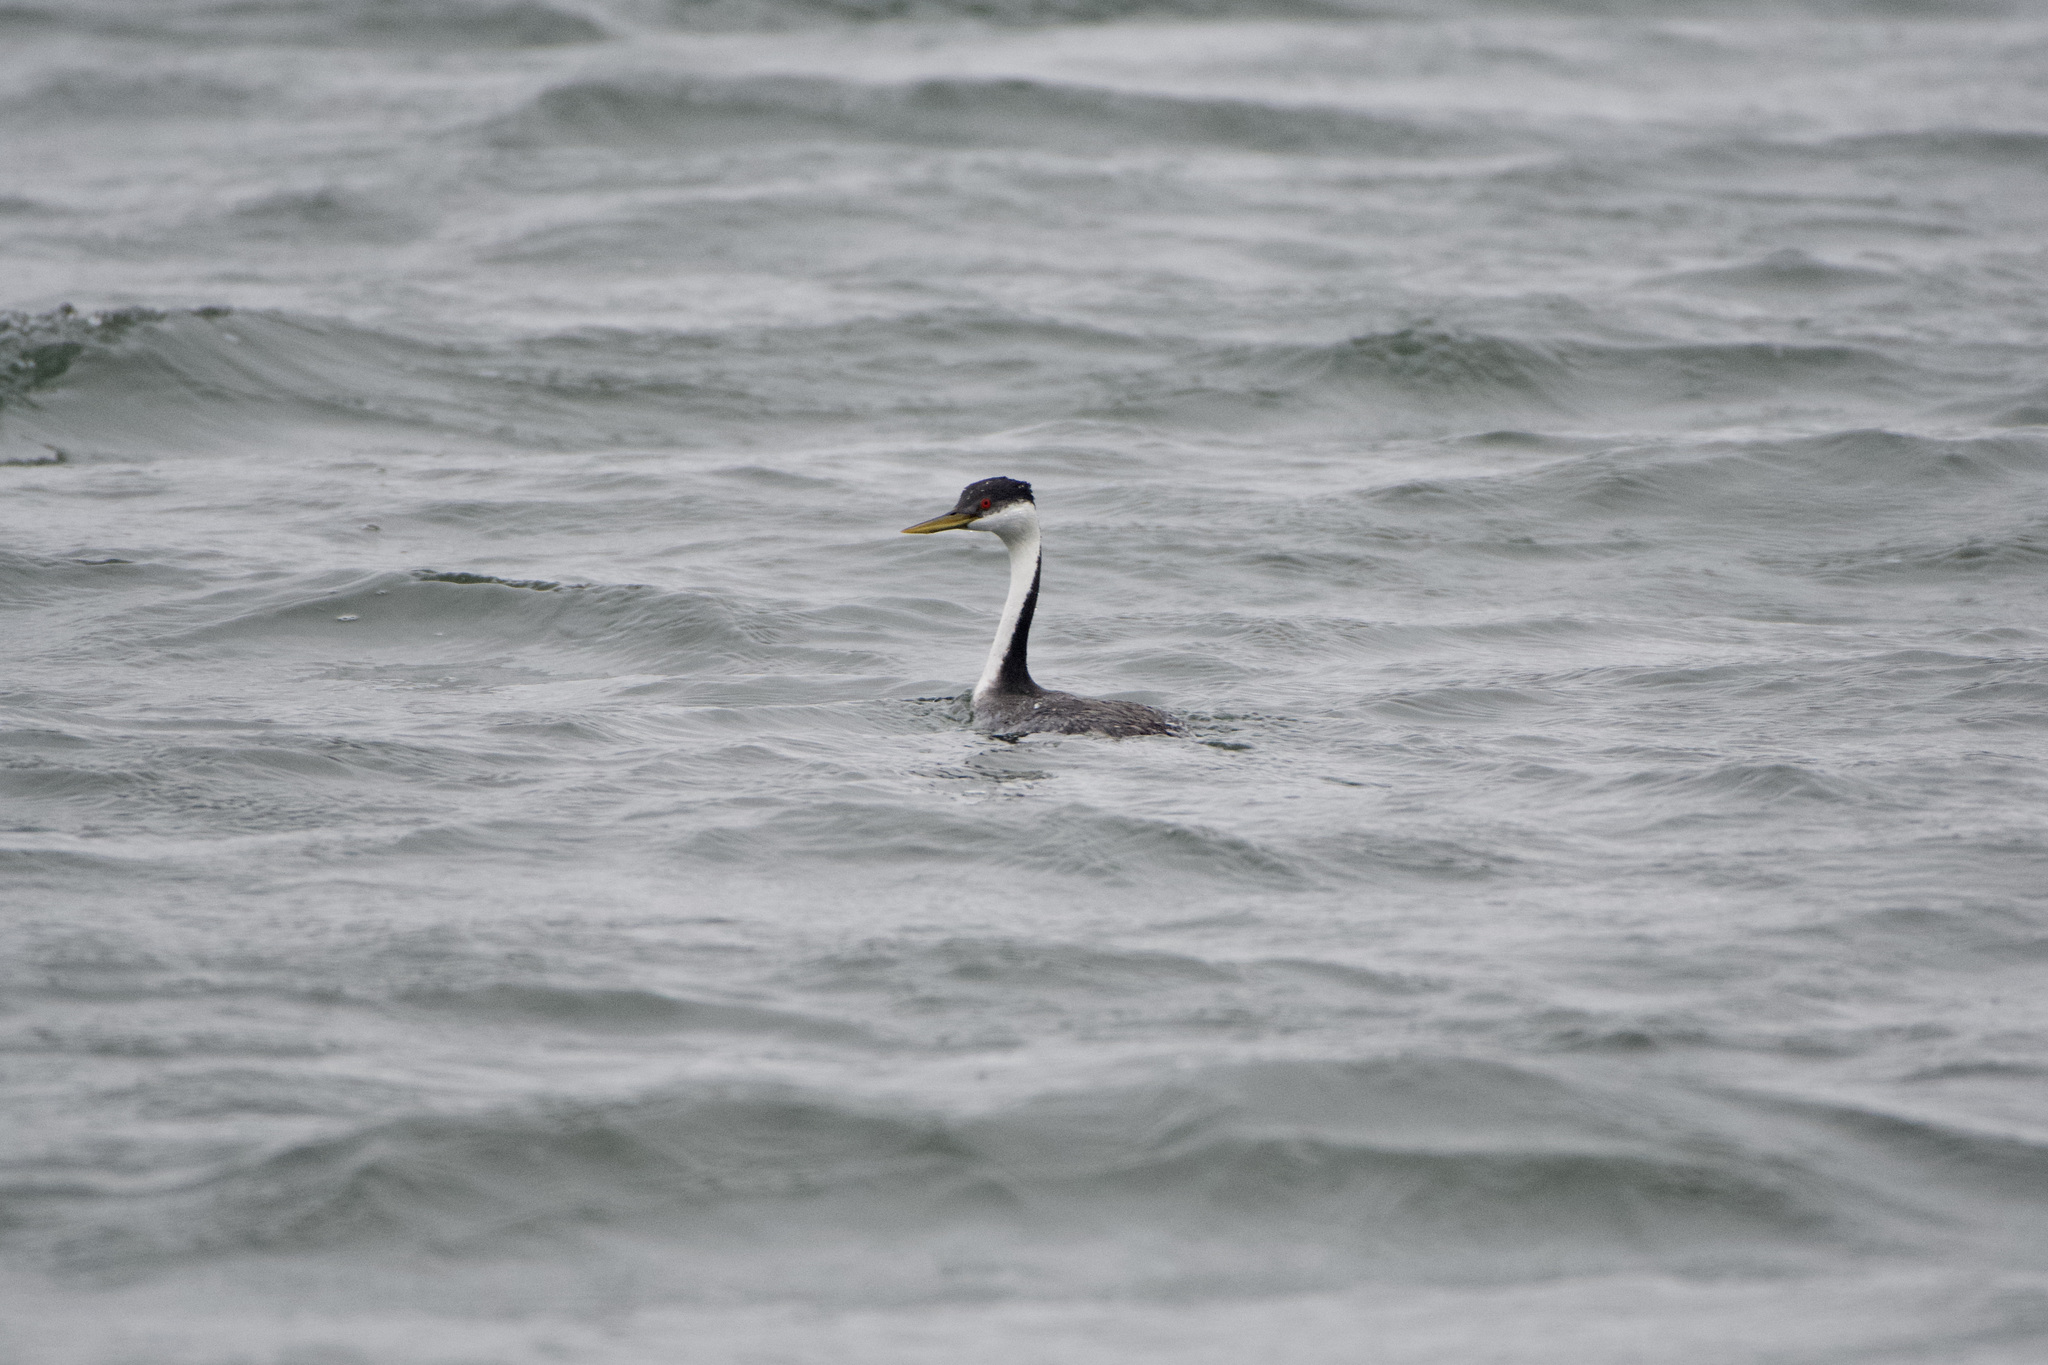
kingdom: Animalia
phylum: Chordata
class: Aves
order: Podicipediformes
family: Podicipedidae
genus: Aechmophorus
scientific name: Aechmophorus occidentalis
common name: Western grebe
